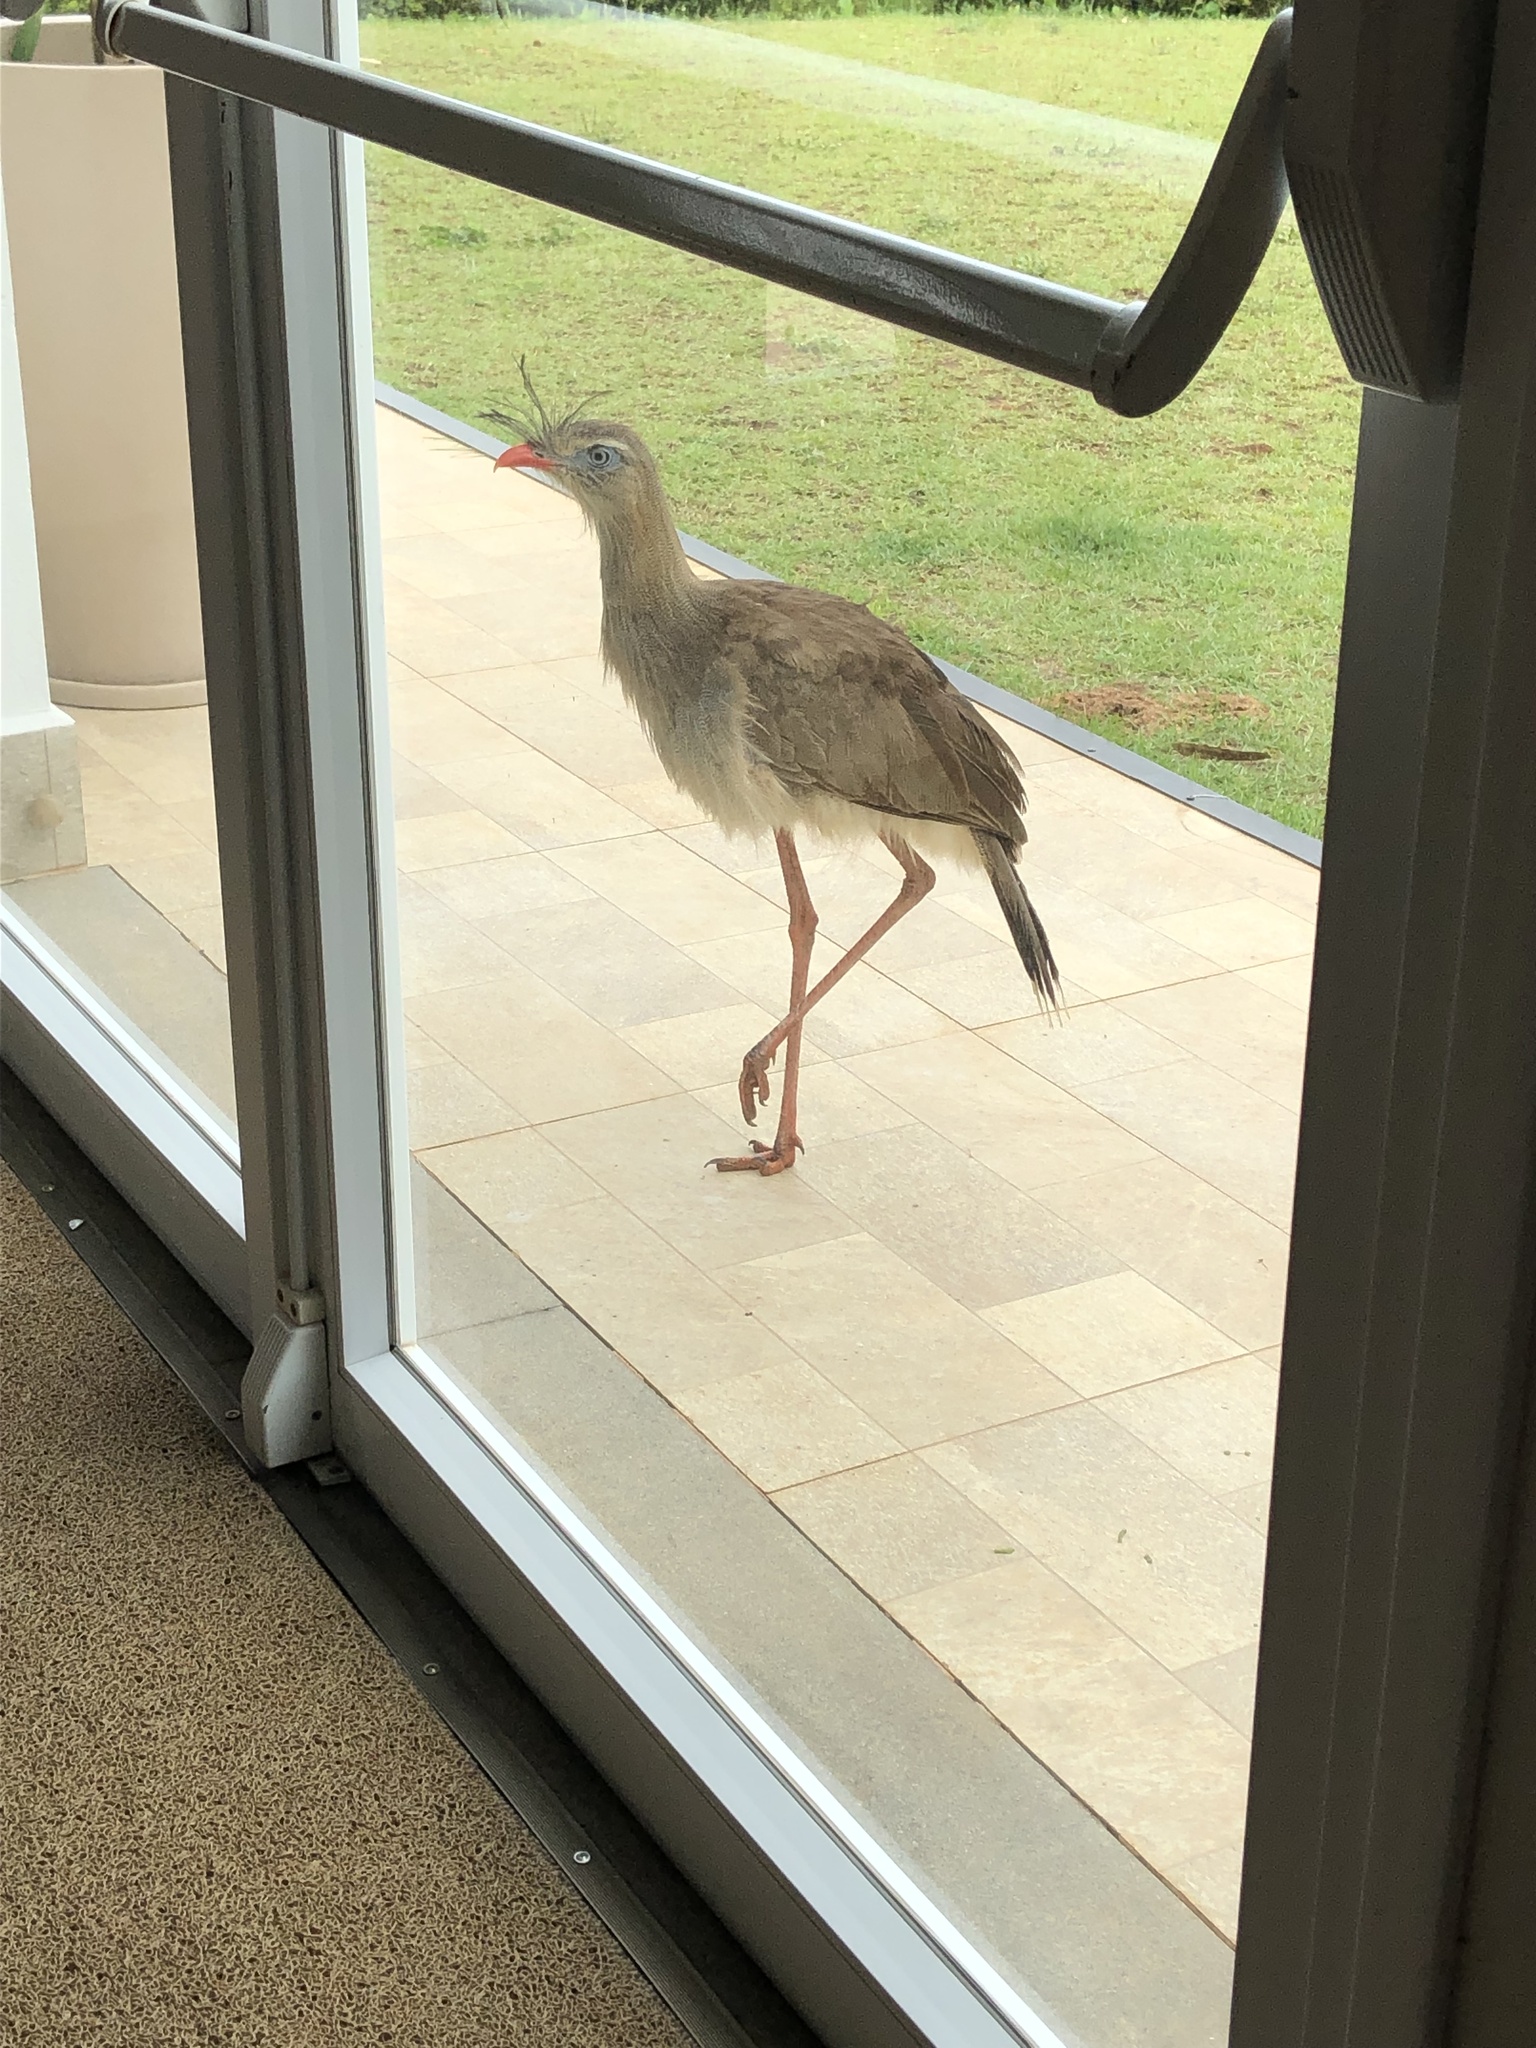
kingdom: Animalia
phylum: Chordata
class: Aves
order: Cariamiformes
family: Cariamidae
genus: Cariama
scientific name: Cariama cristata
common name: Red-legged seriema
